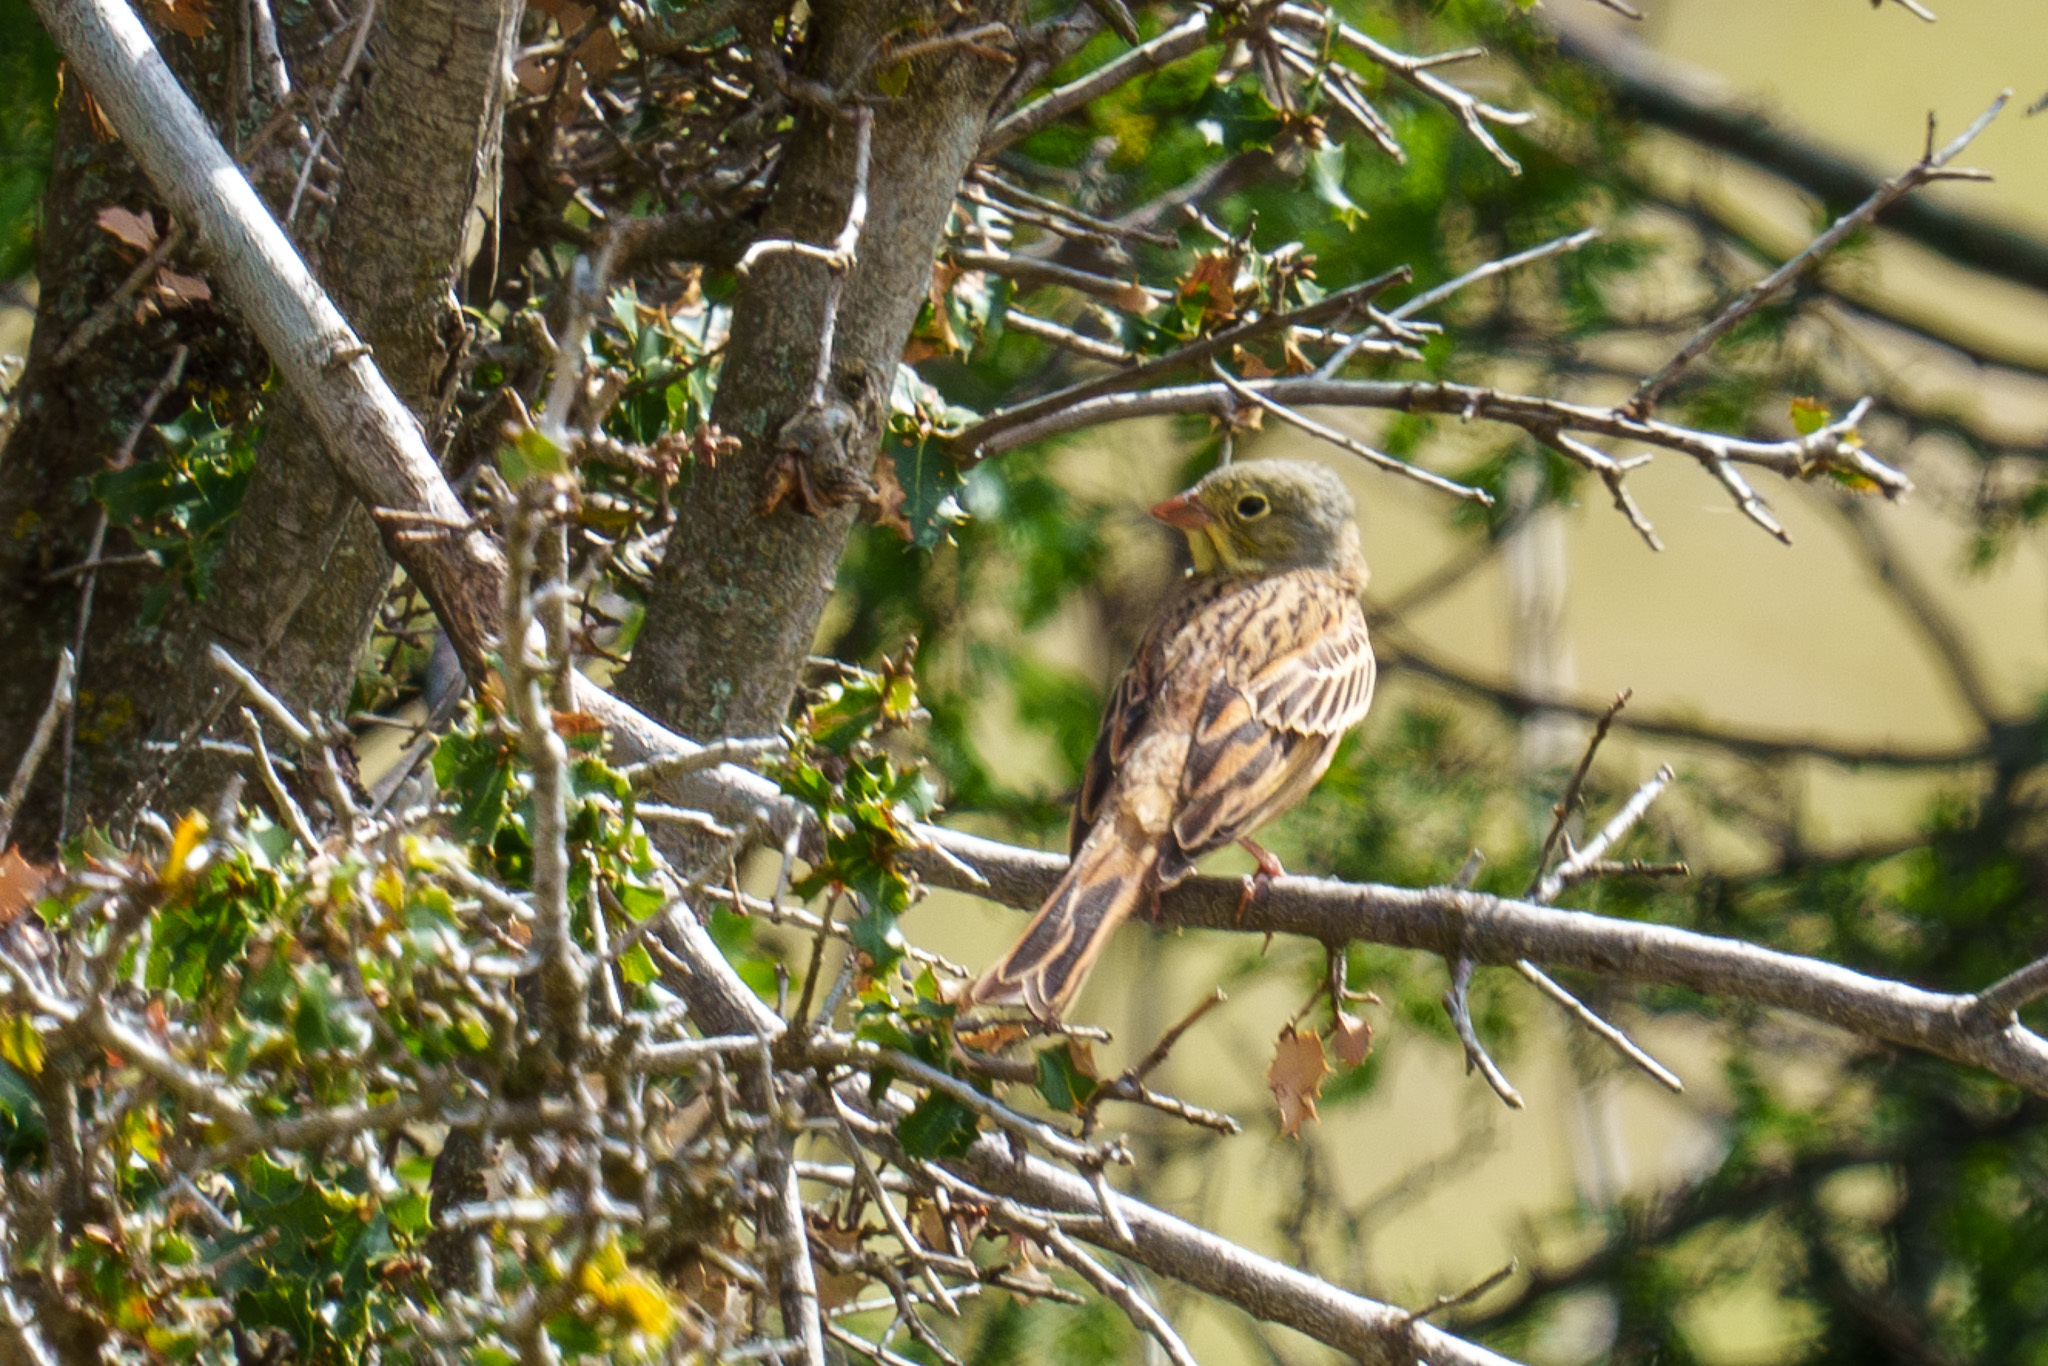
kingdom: Animalia
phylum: Chordata
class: Aves
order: Passeriformes
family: Emberizidae
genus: Emberiza
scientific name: Emberiza hortulana
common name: Ortolan bunting
